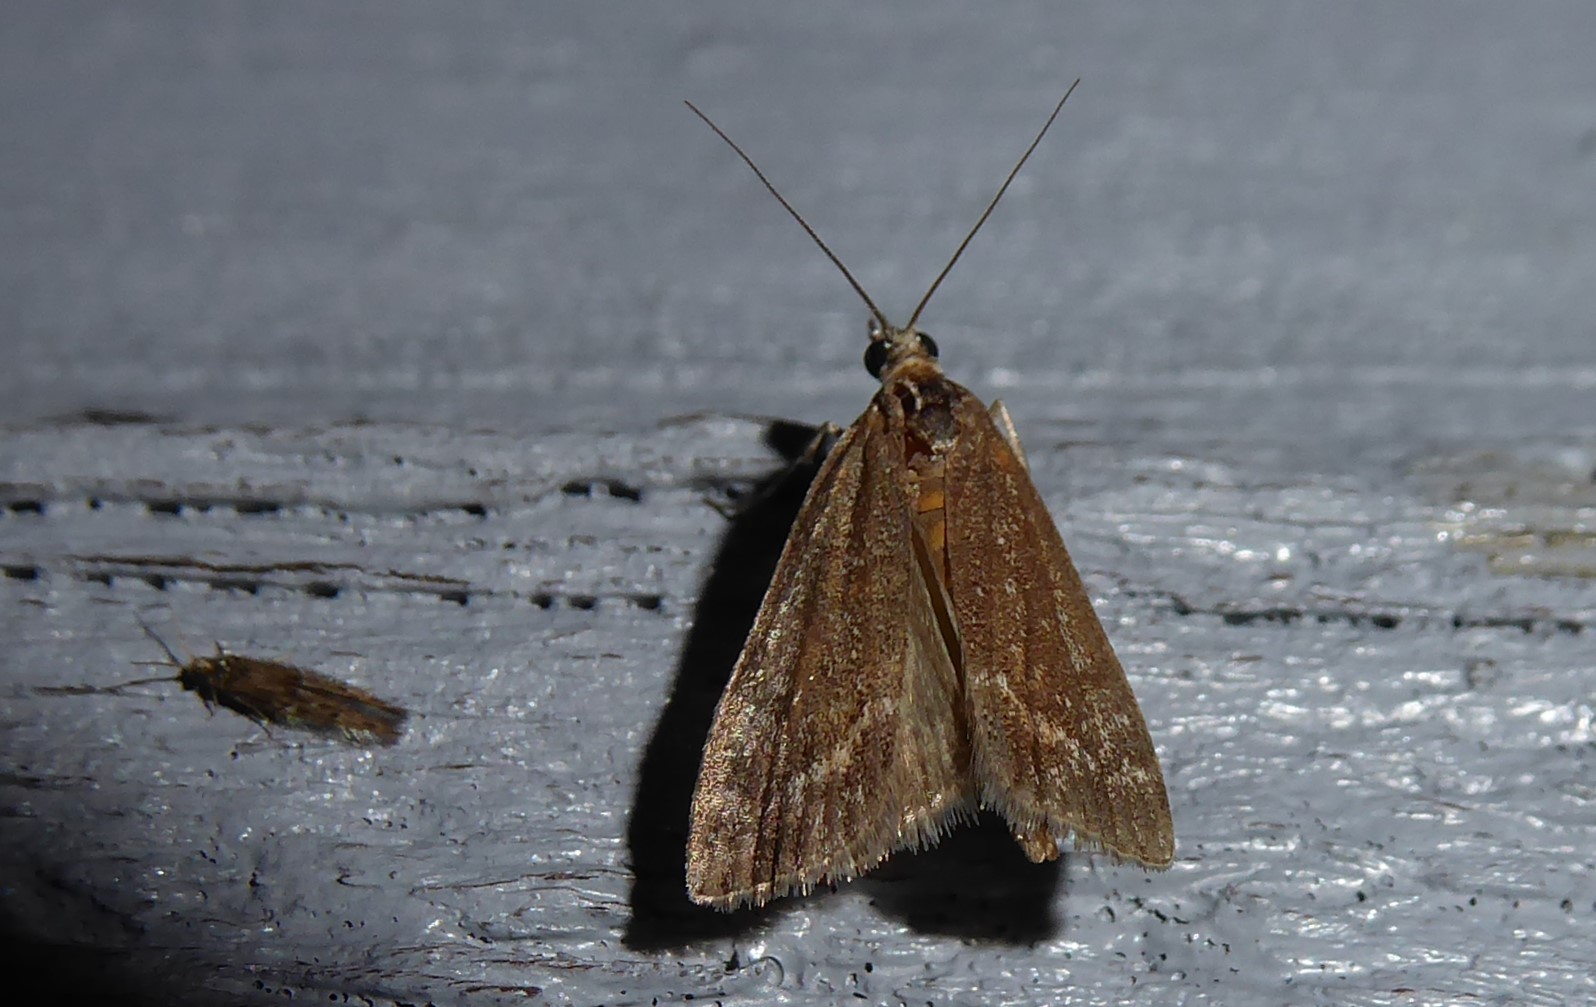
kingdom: Animalia
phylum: Arthropoda
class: Insecta
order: Lepidoptera
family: Crambidae
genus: Eudonia
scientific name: Eudonia submarginalis
